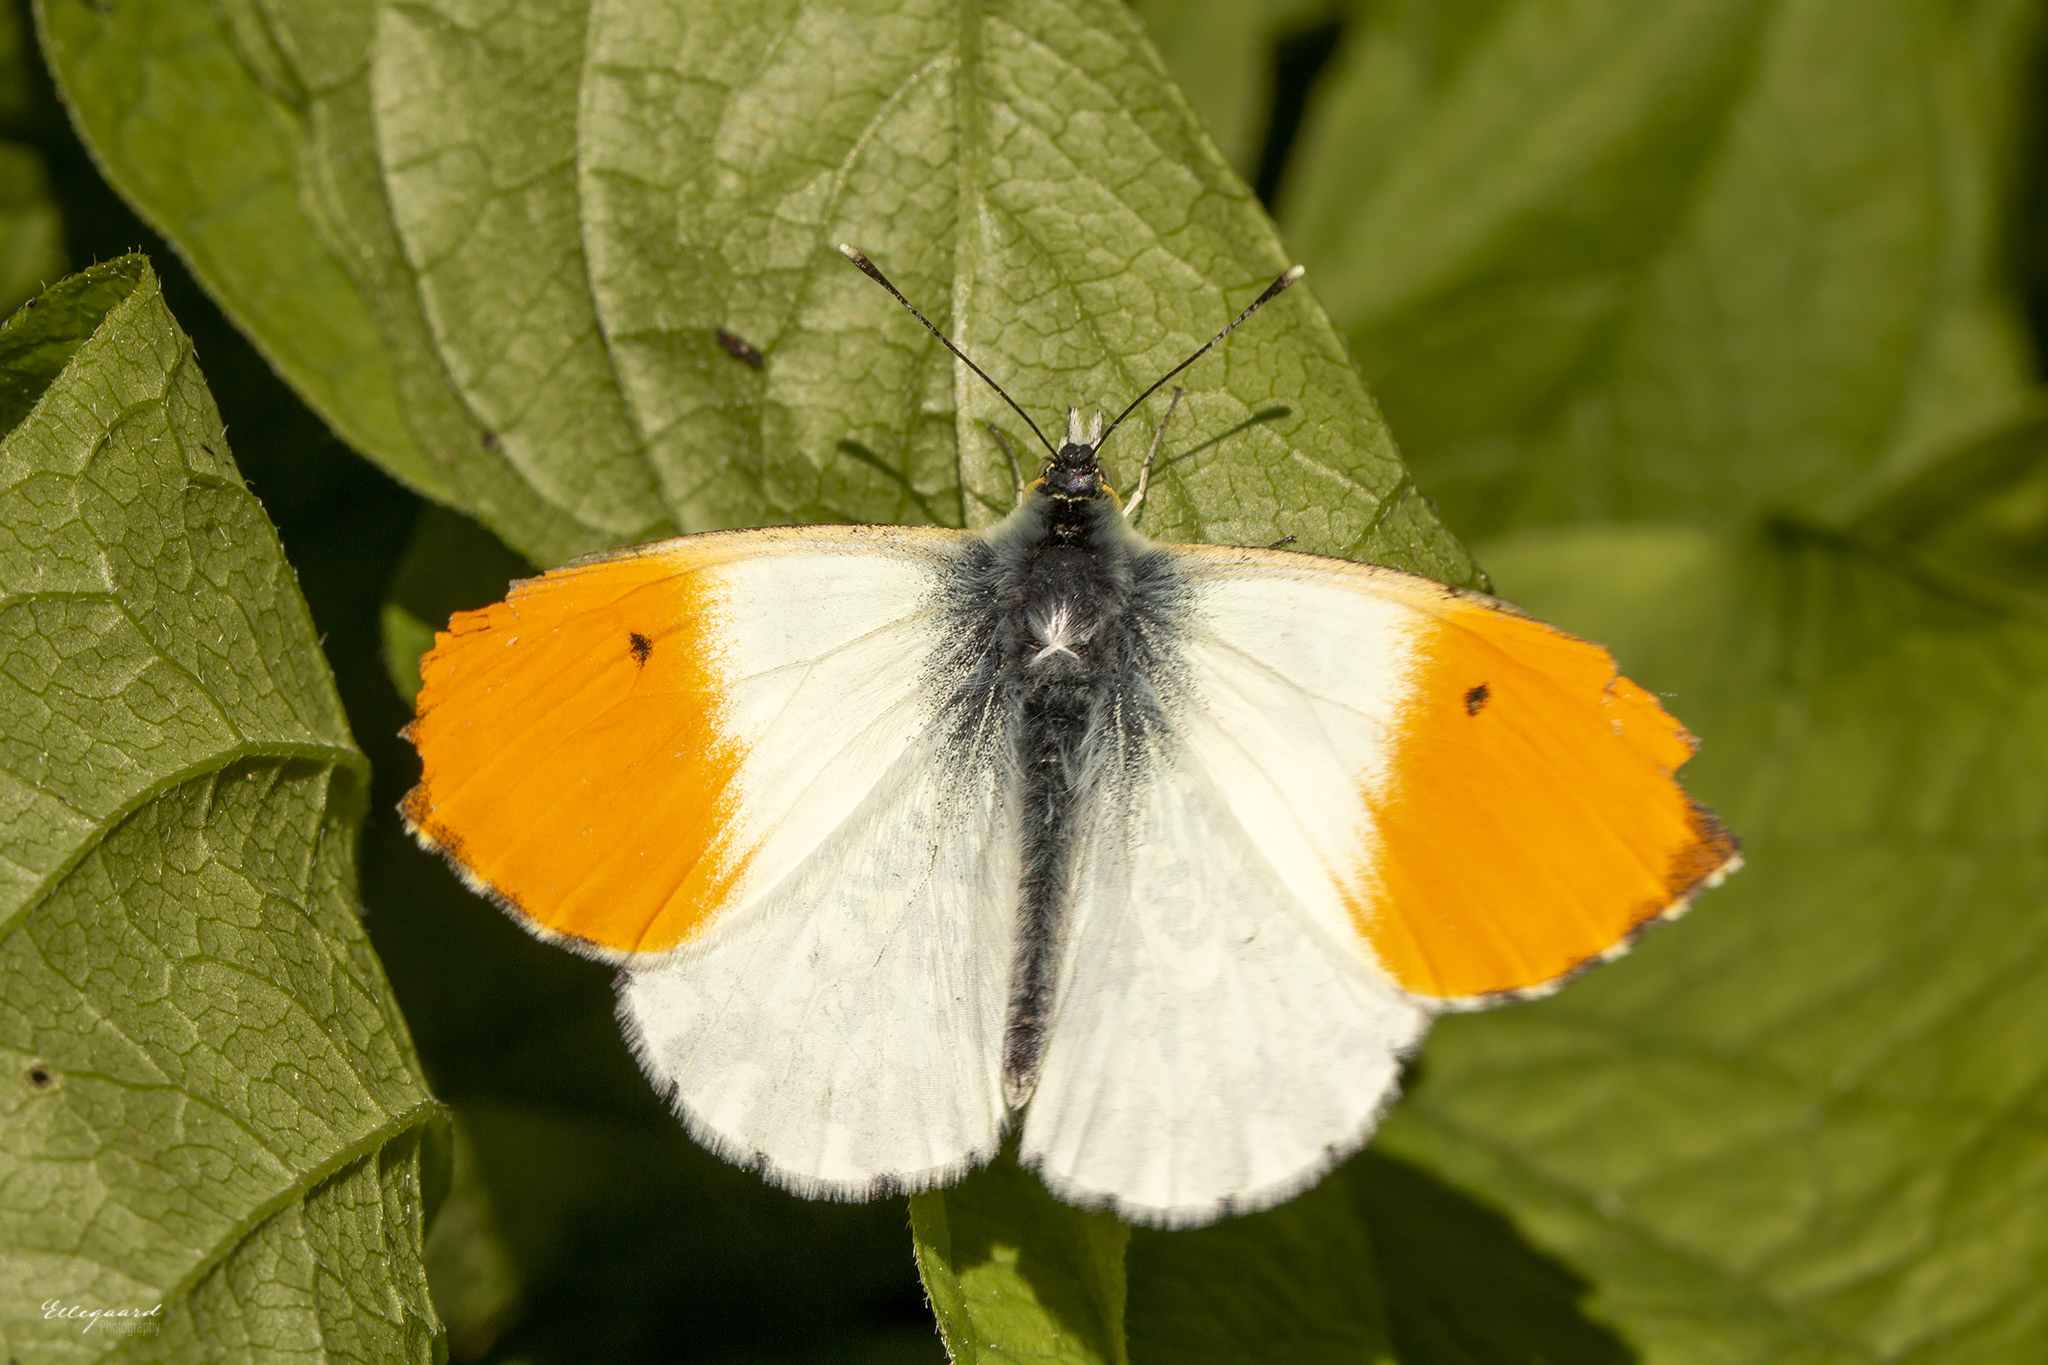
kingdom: Animalia
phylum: Arthropoda
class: Insecta
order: Lepidoptera
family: Pieridae
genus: Anthocharis
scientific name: Anthocharis cardamines
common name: Orange-tip
